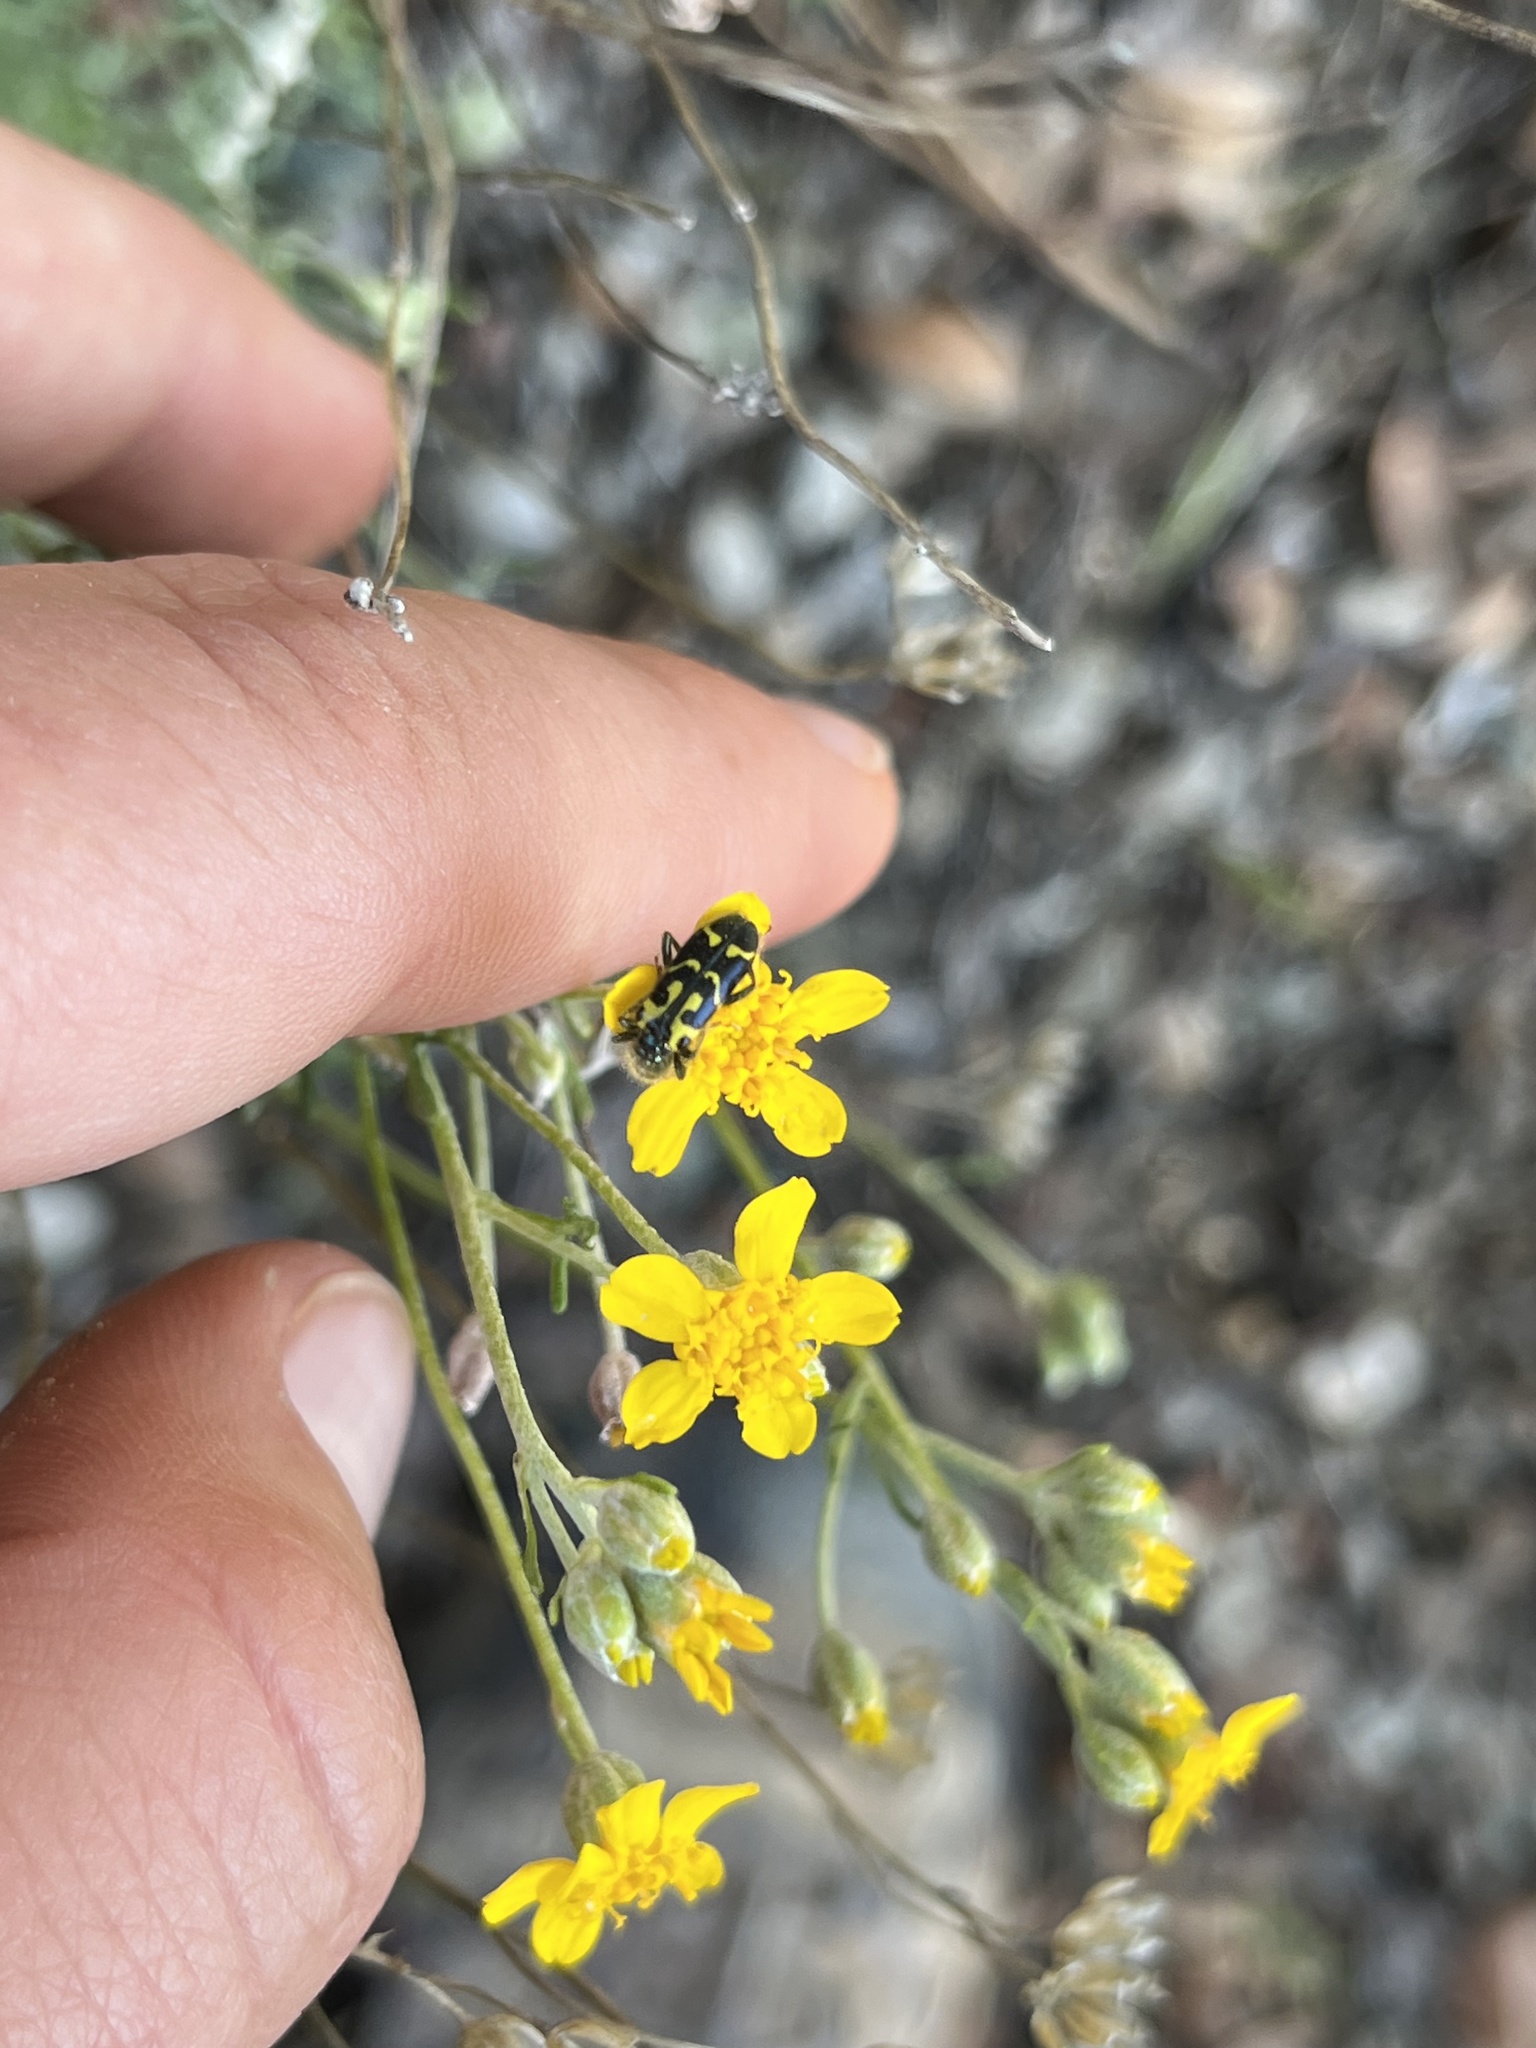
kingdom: Animalia
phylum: Arthropoda
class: Insecta
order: Coleoptera
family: Cleridae
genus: Trichodes
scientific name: Trichodes ornatus
